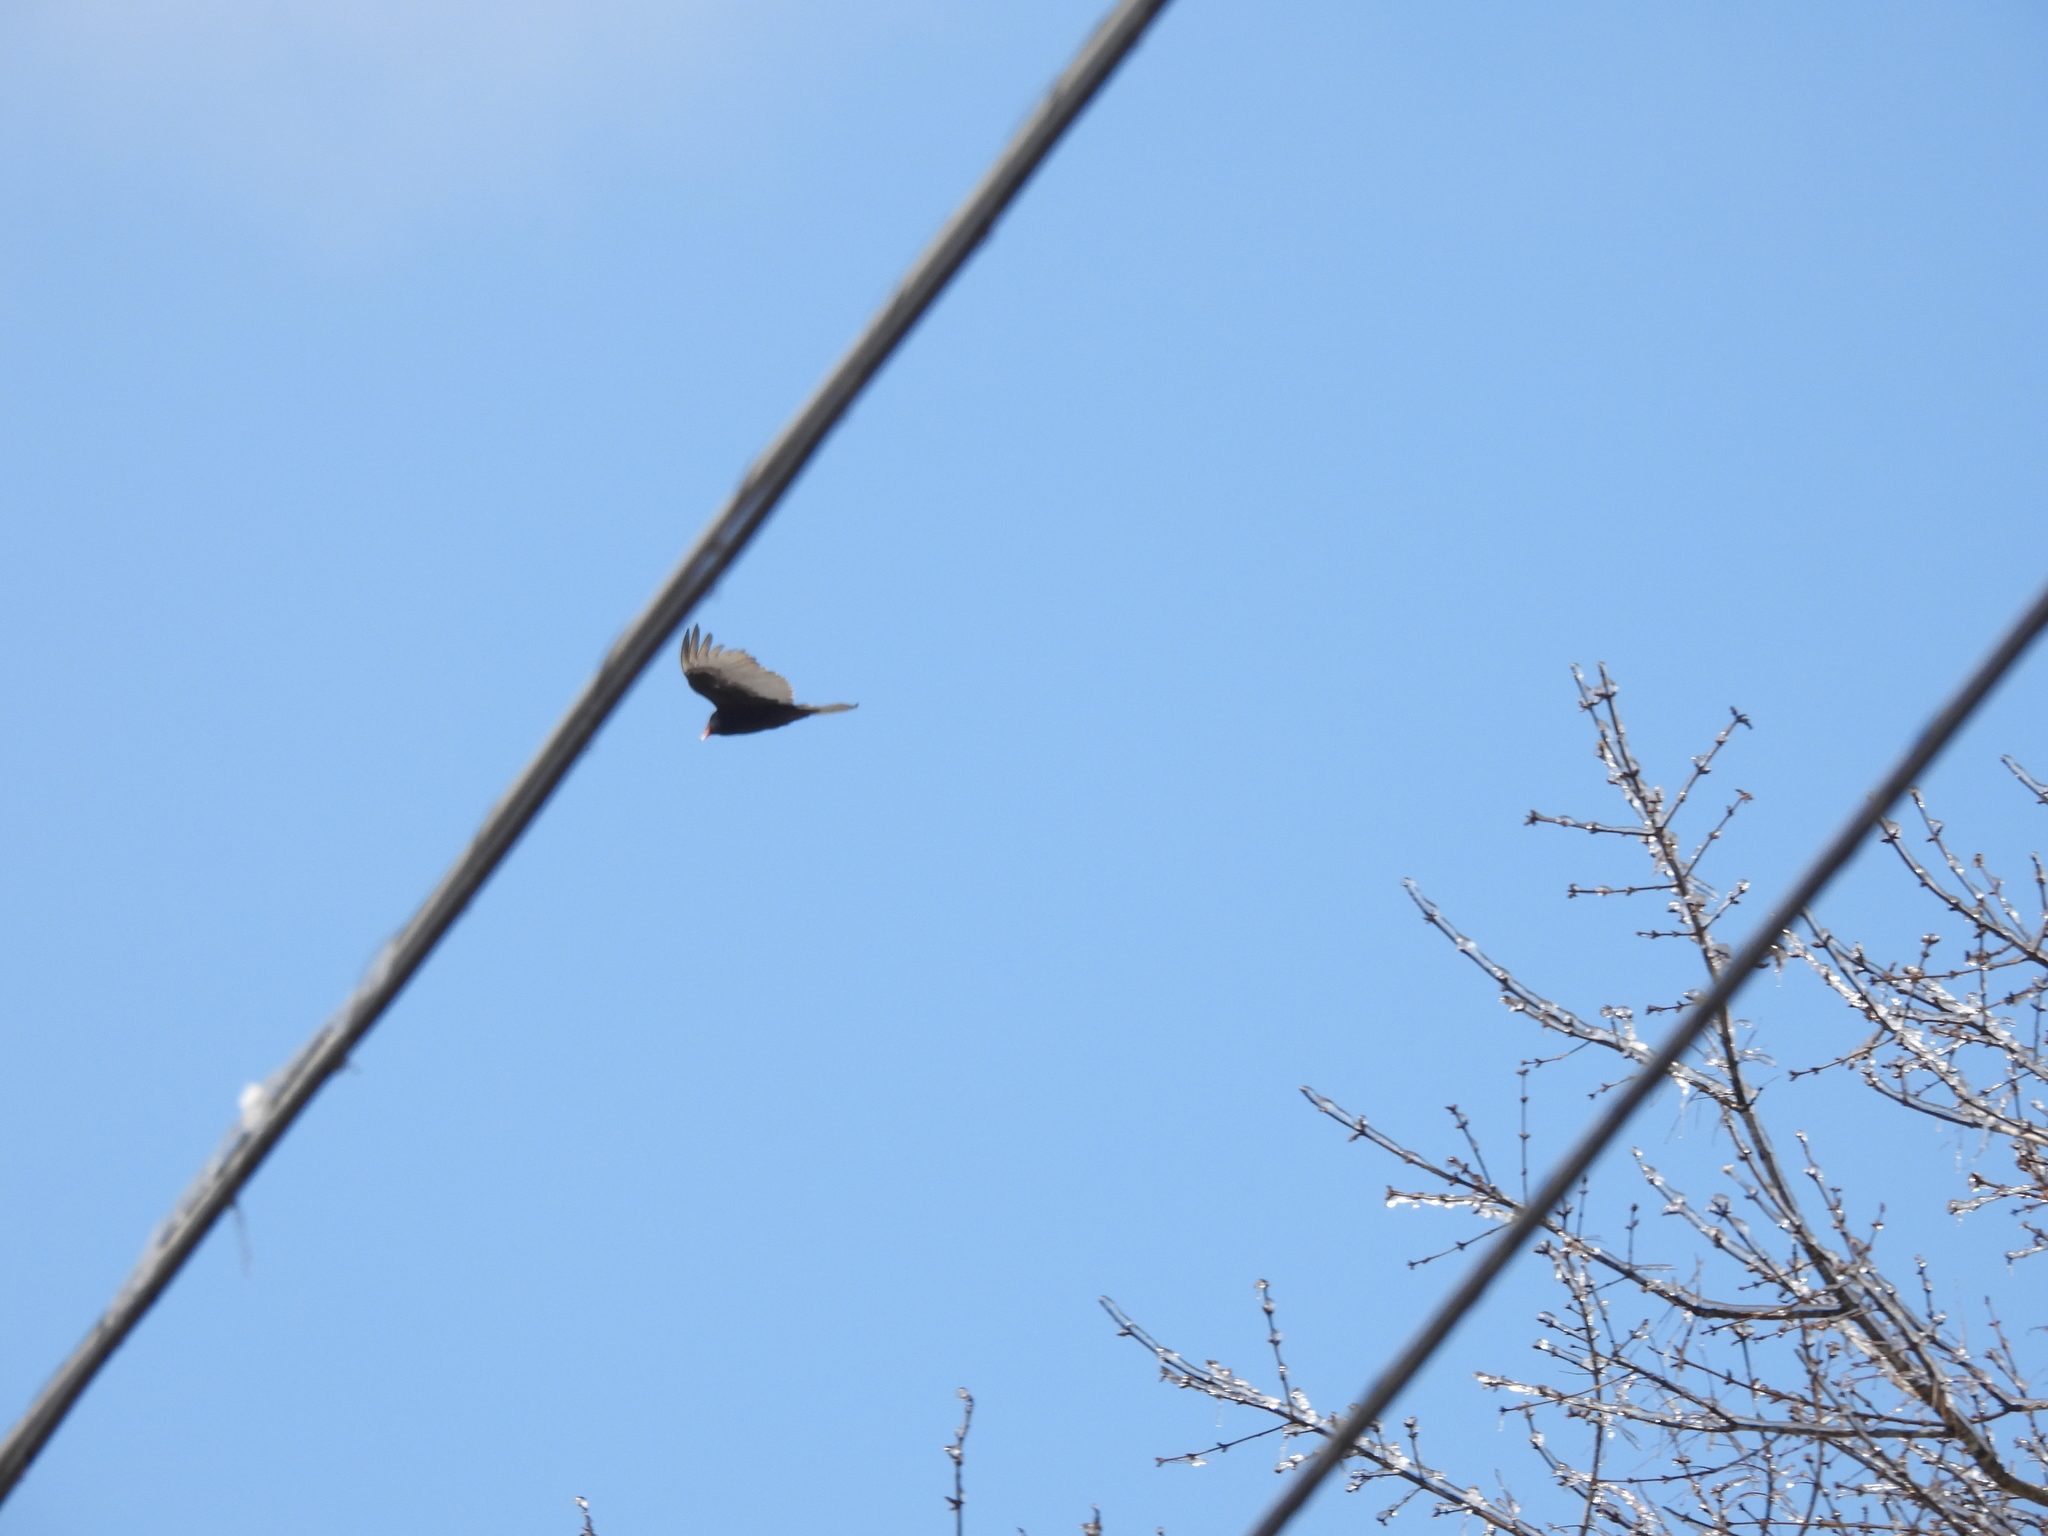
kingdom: Animalia
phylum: Chordata
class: Aves
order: Accipitriformes
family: Cathartidae
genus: Cathartes
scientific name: Cathartes aura
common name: Turkey vulture
